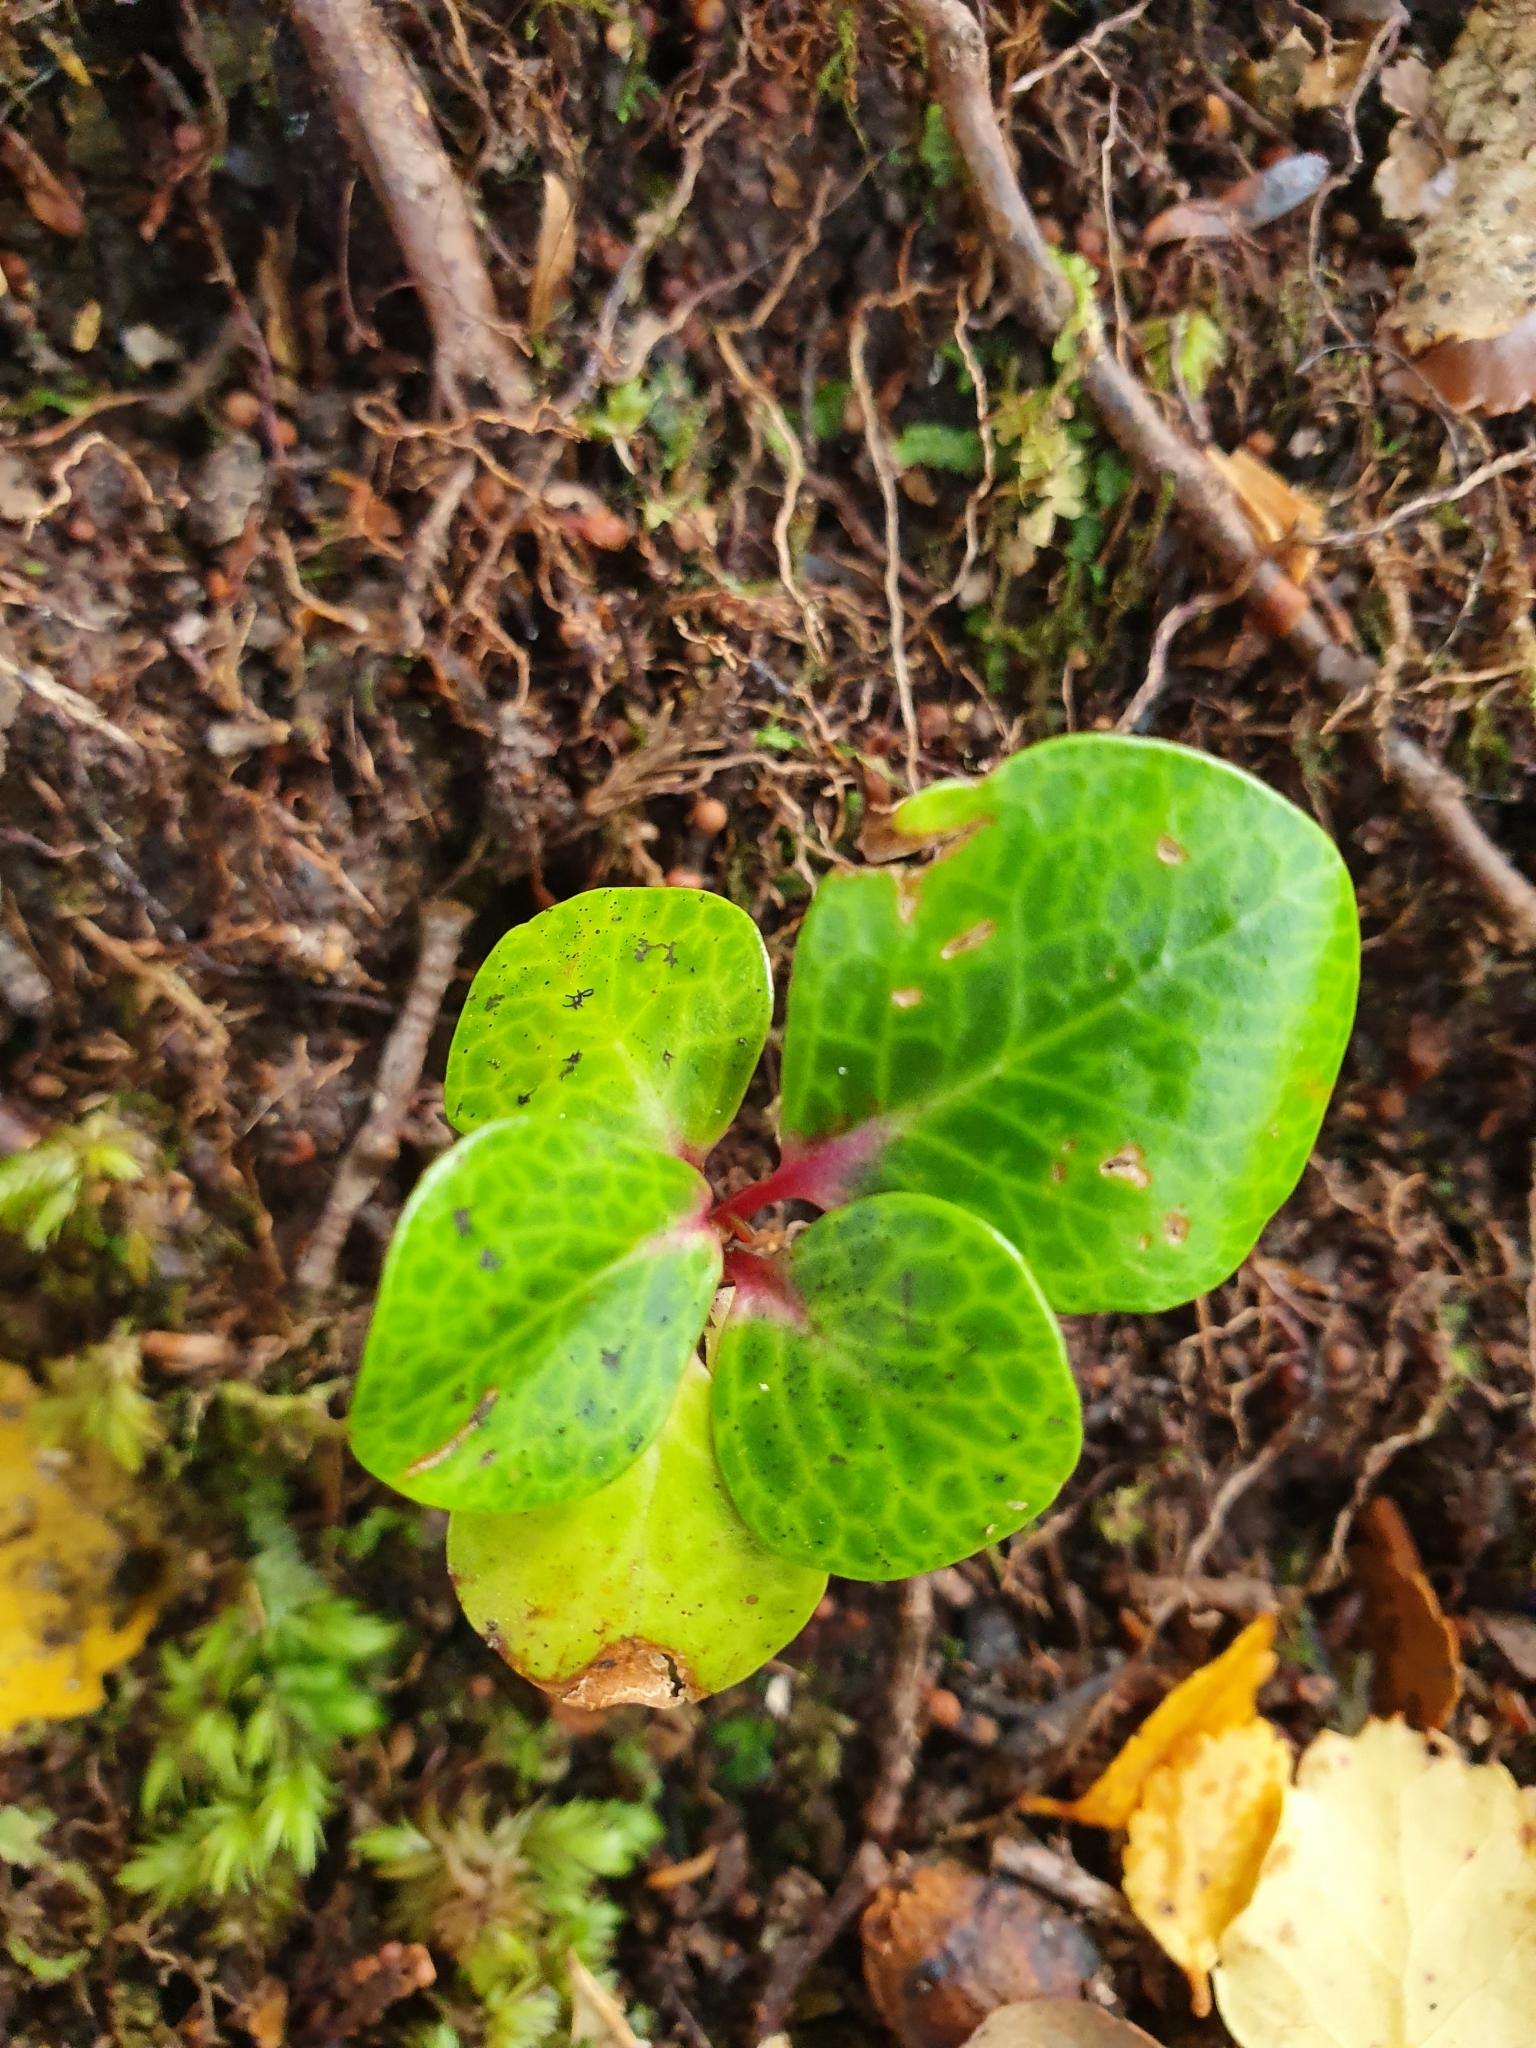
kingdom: Plantae
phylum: Tracheophyta
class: Magnoliopsida
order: Canellales
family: Winteraceae
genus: Pseudowintera
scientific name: Pseudowintera axillaris
